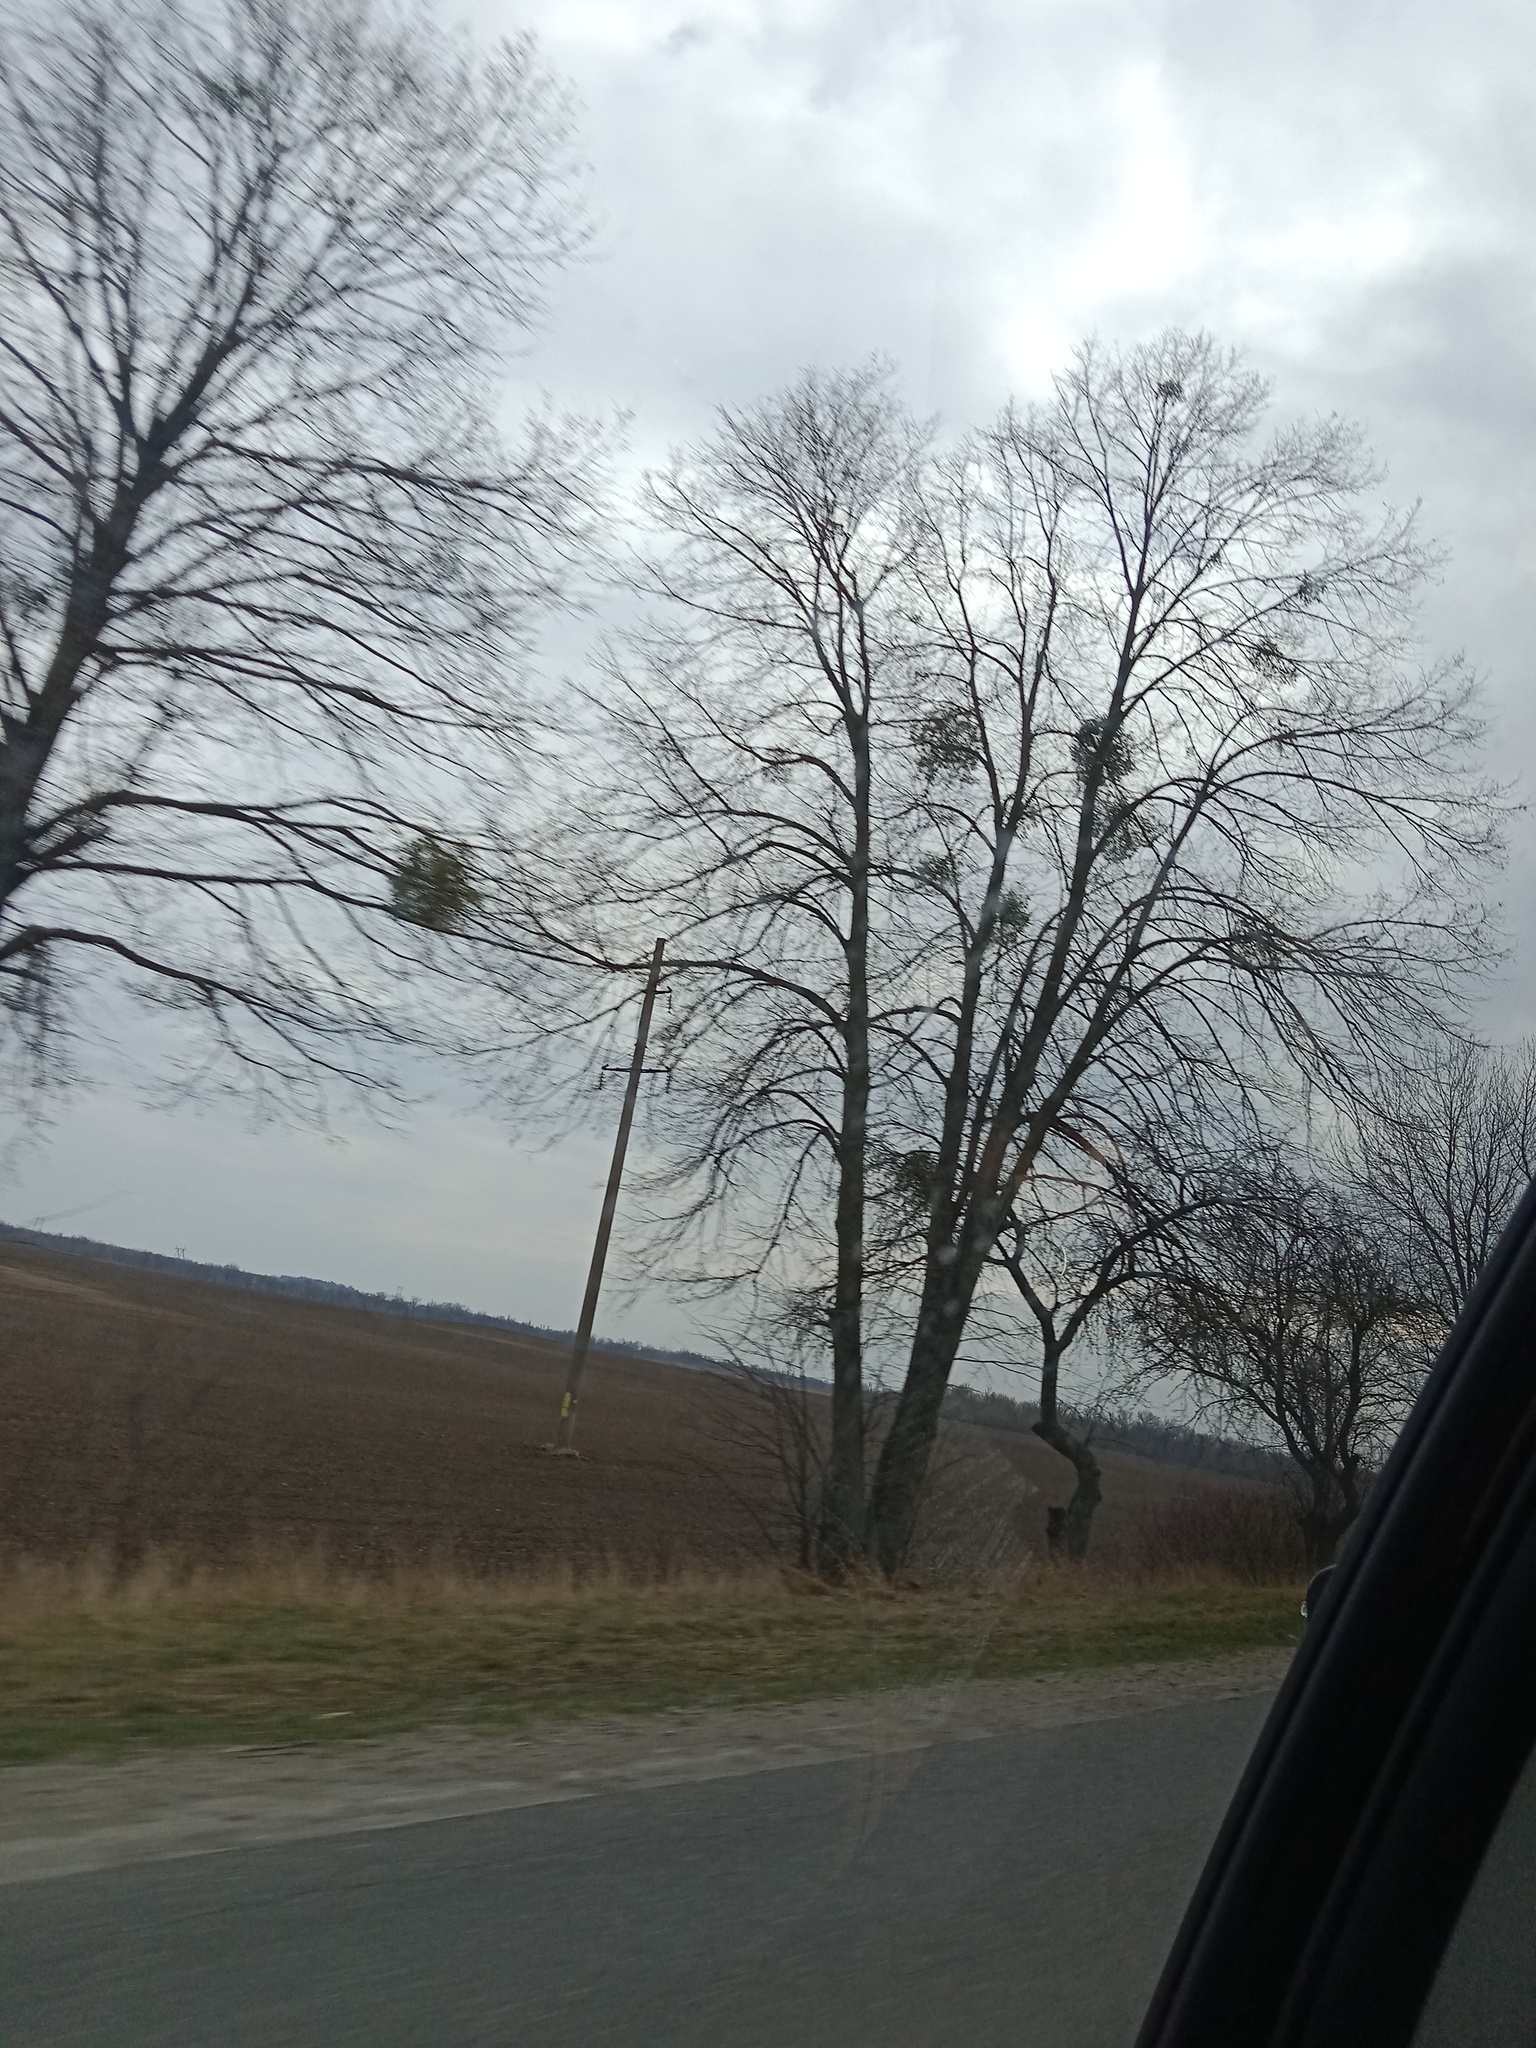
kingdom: Plantae
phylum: Tracheophyta
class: Magnoliopsida
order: Santalales
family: Viscaceae
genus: Viscum
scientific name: Viscum album
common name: Mistletoe
